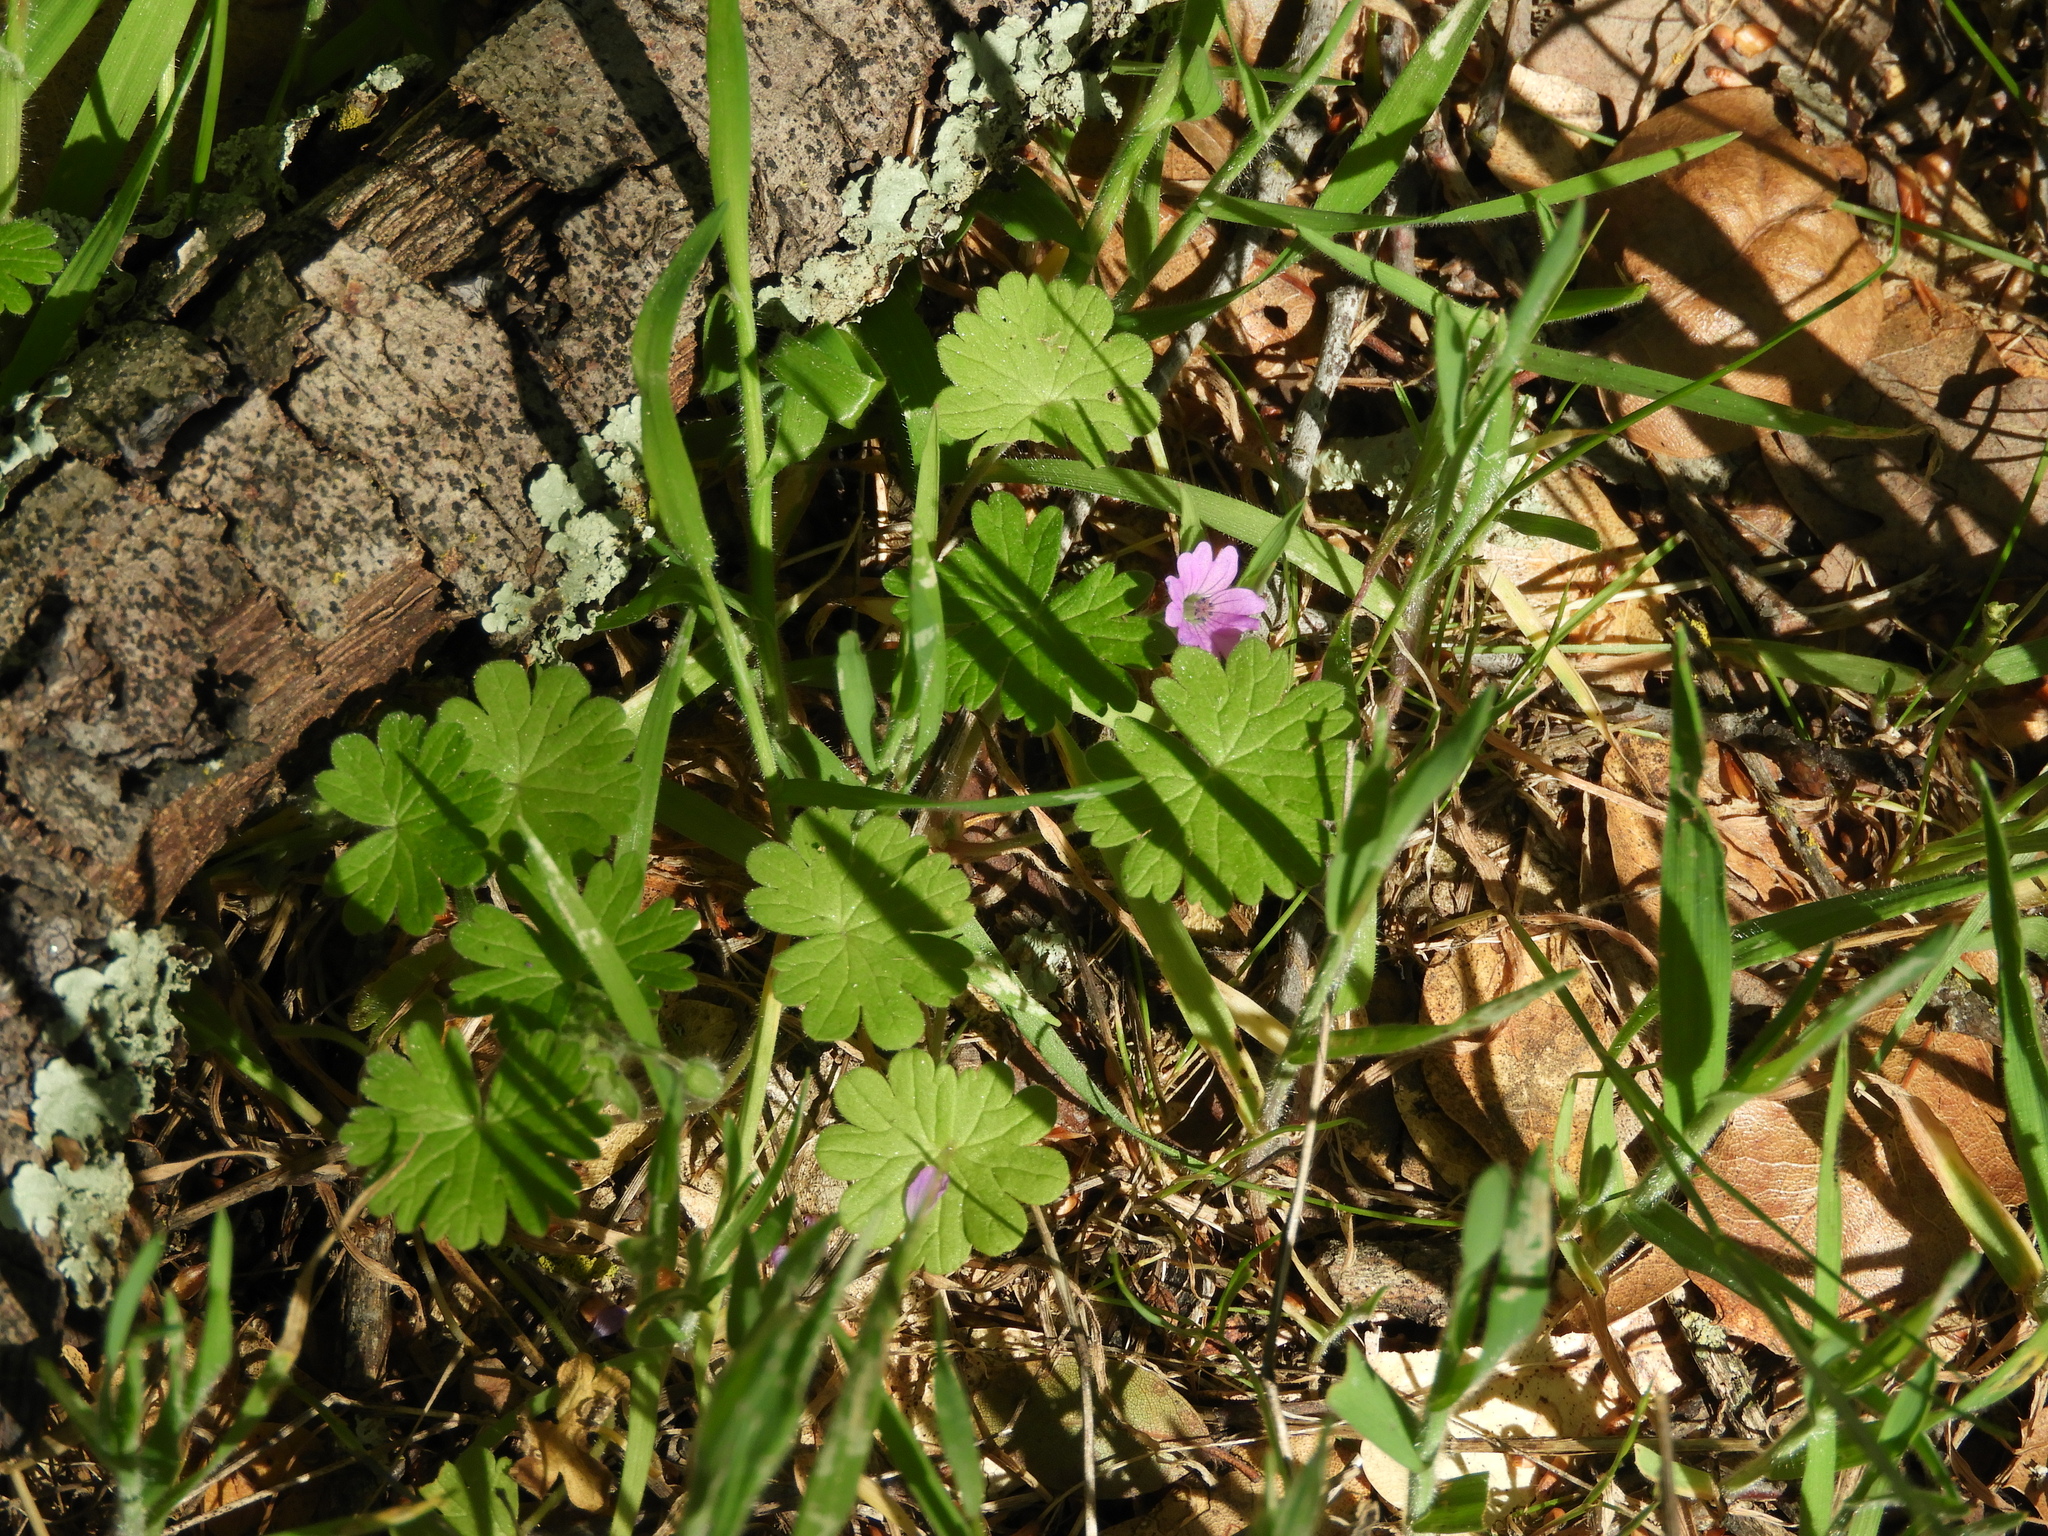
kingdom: Plantae
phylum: Tracheophyta
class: Magnoliopsida
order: Geraniales
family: Geraniaceae
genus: Geranium
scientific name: Geranium molle
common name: Dove's-foot crane's-bill
